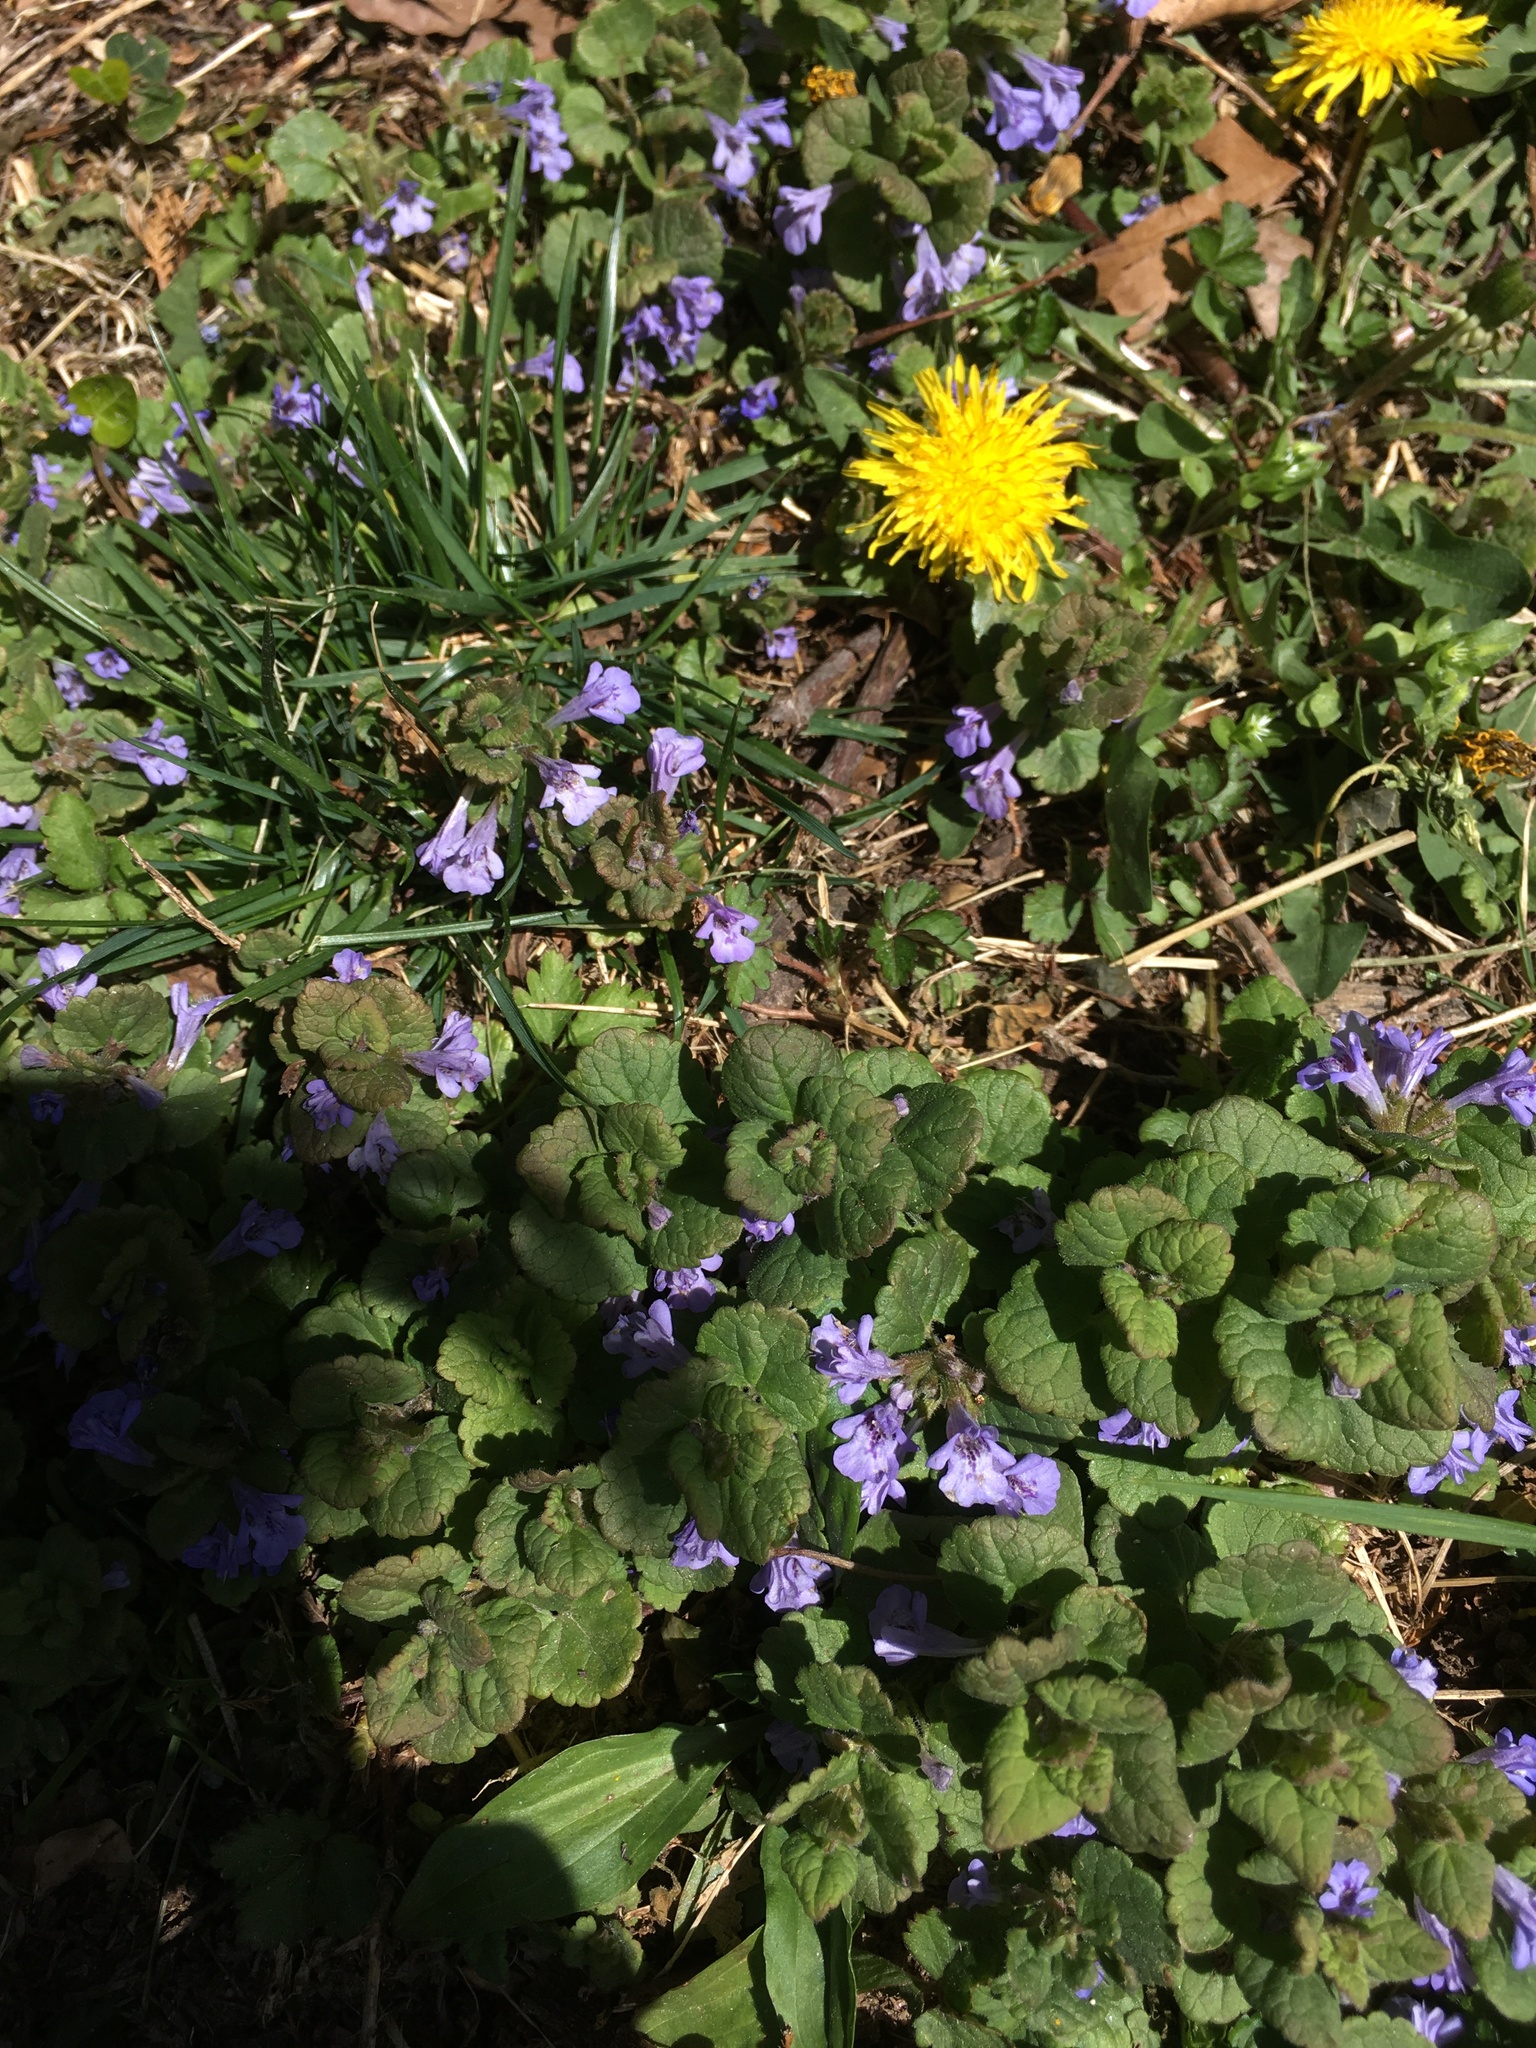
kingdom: Plantae
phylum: Tracheophyta
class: Magnoliopsida
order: Lamiales
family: Lamiaceae
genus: Glechoma
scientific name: Glechoma hederacea
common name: Ground ivy
